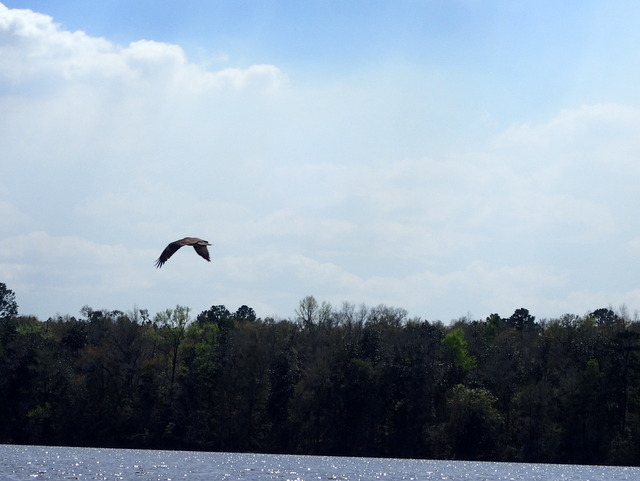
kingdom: Animalia
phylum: Chordata
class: Aves
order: Accipitriformes
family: Pandionidae
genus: Pandion
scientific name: Pandion haliaetus
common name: Osprey
